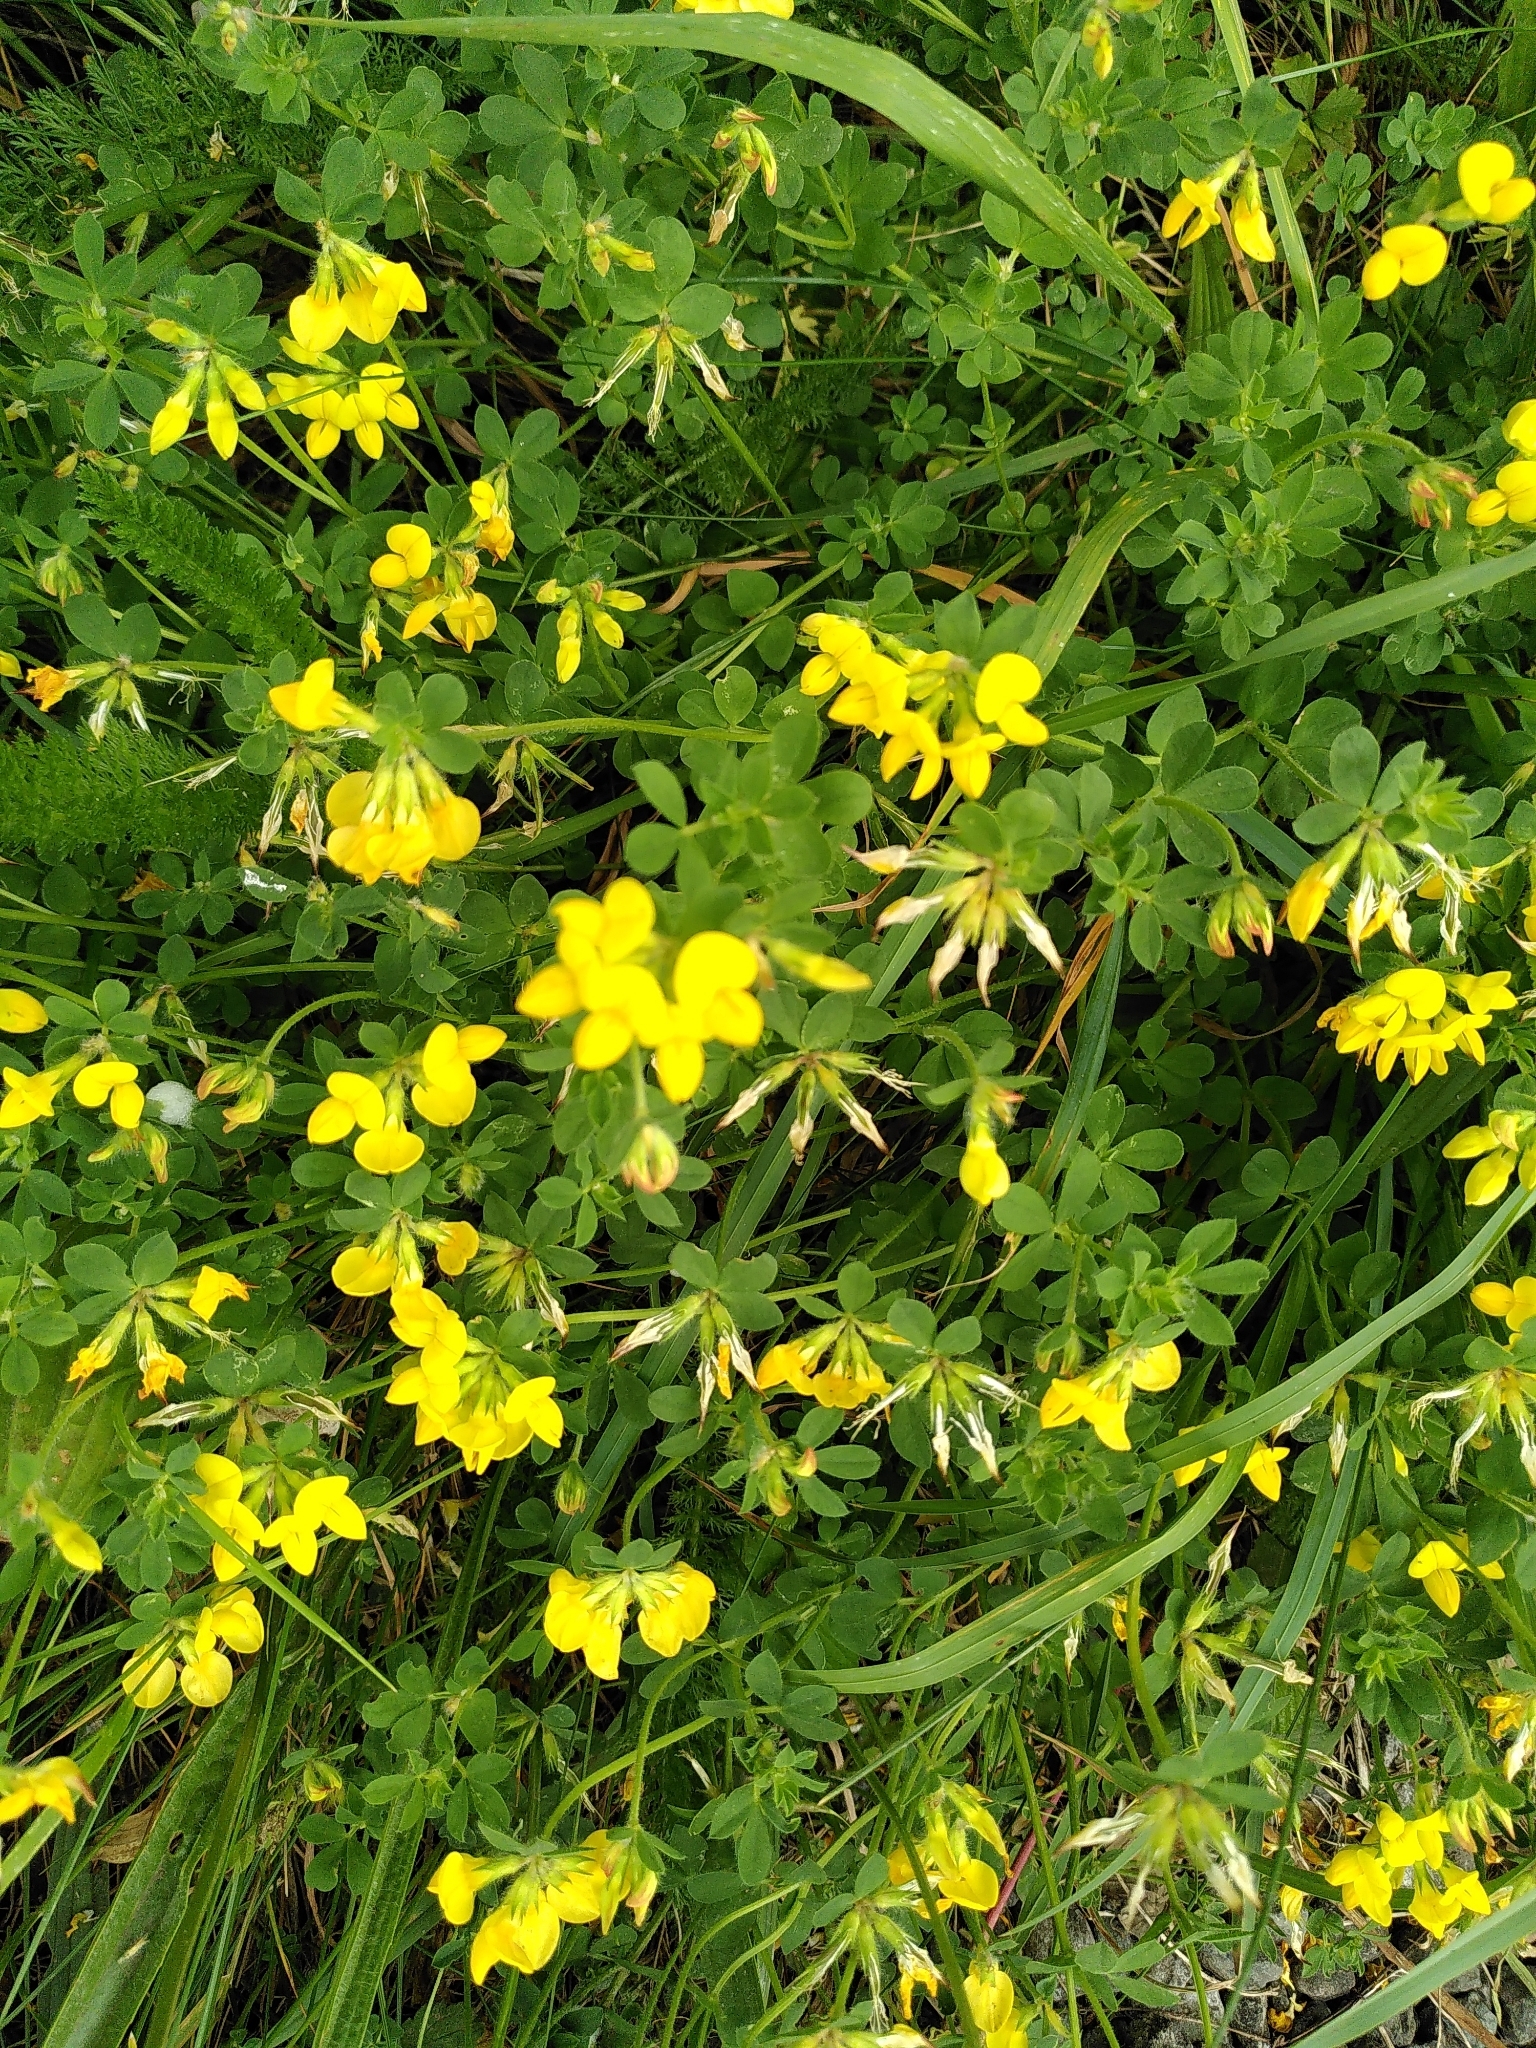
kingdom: Plantae
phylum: Tracheophyta
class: Magnoliopsida
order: Fabales
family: Fabaceae
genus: Lotus
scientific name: Lotus corniculatus
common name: Common bird's-foot-trefoil
